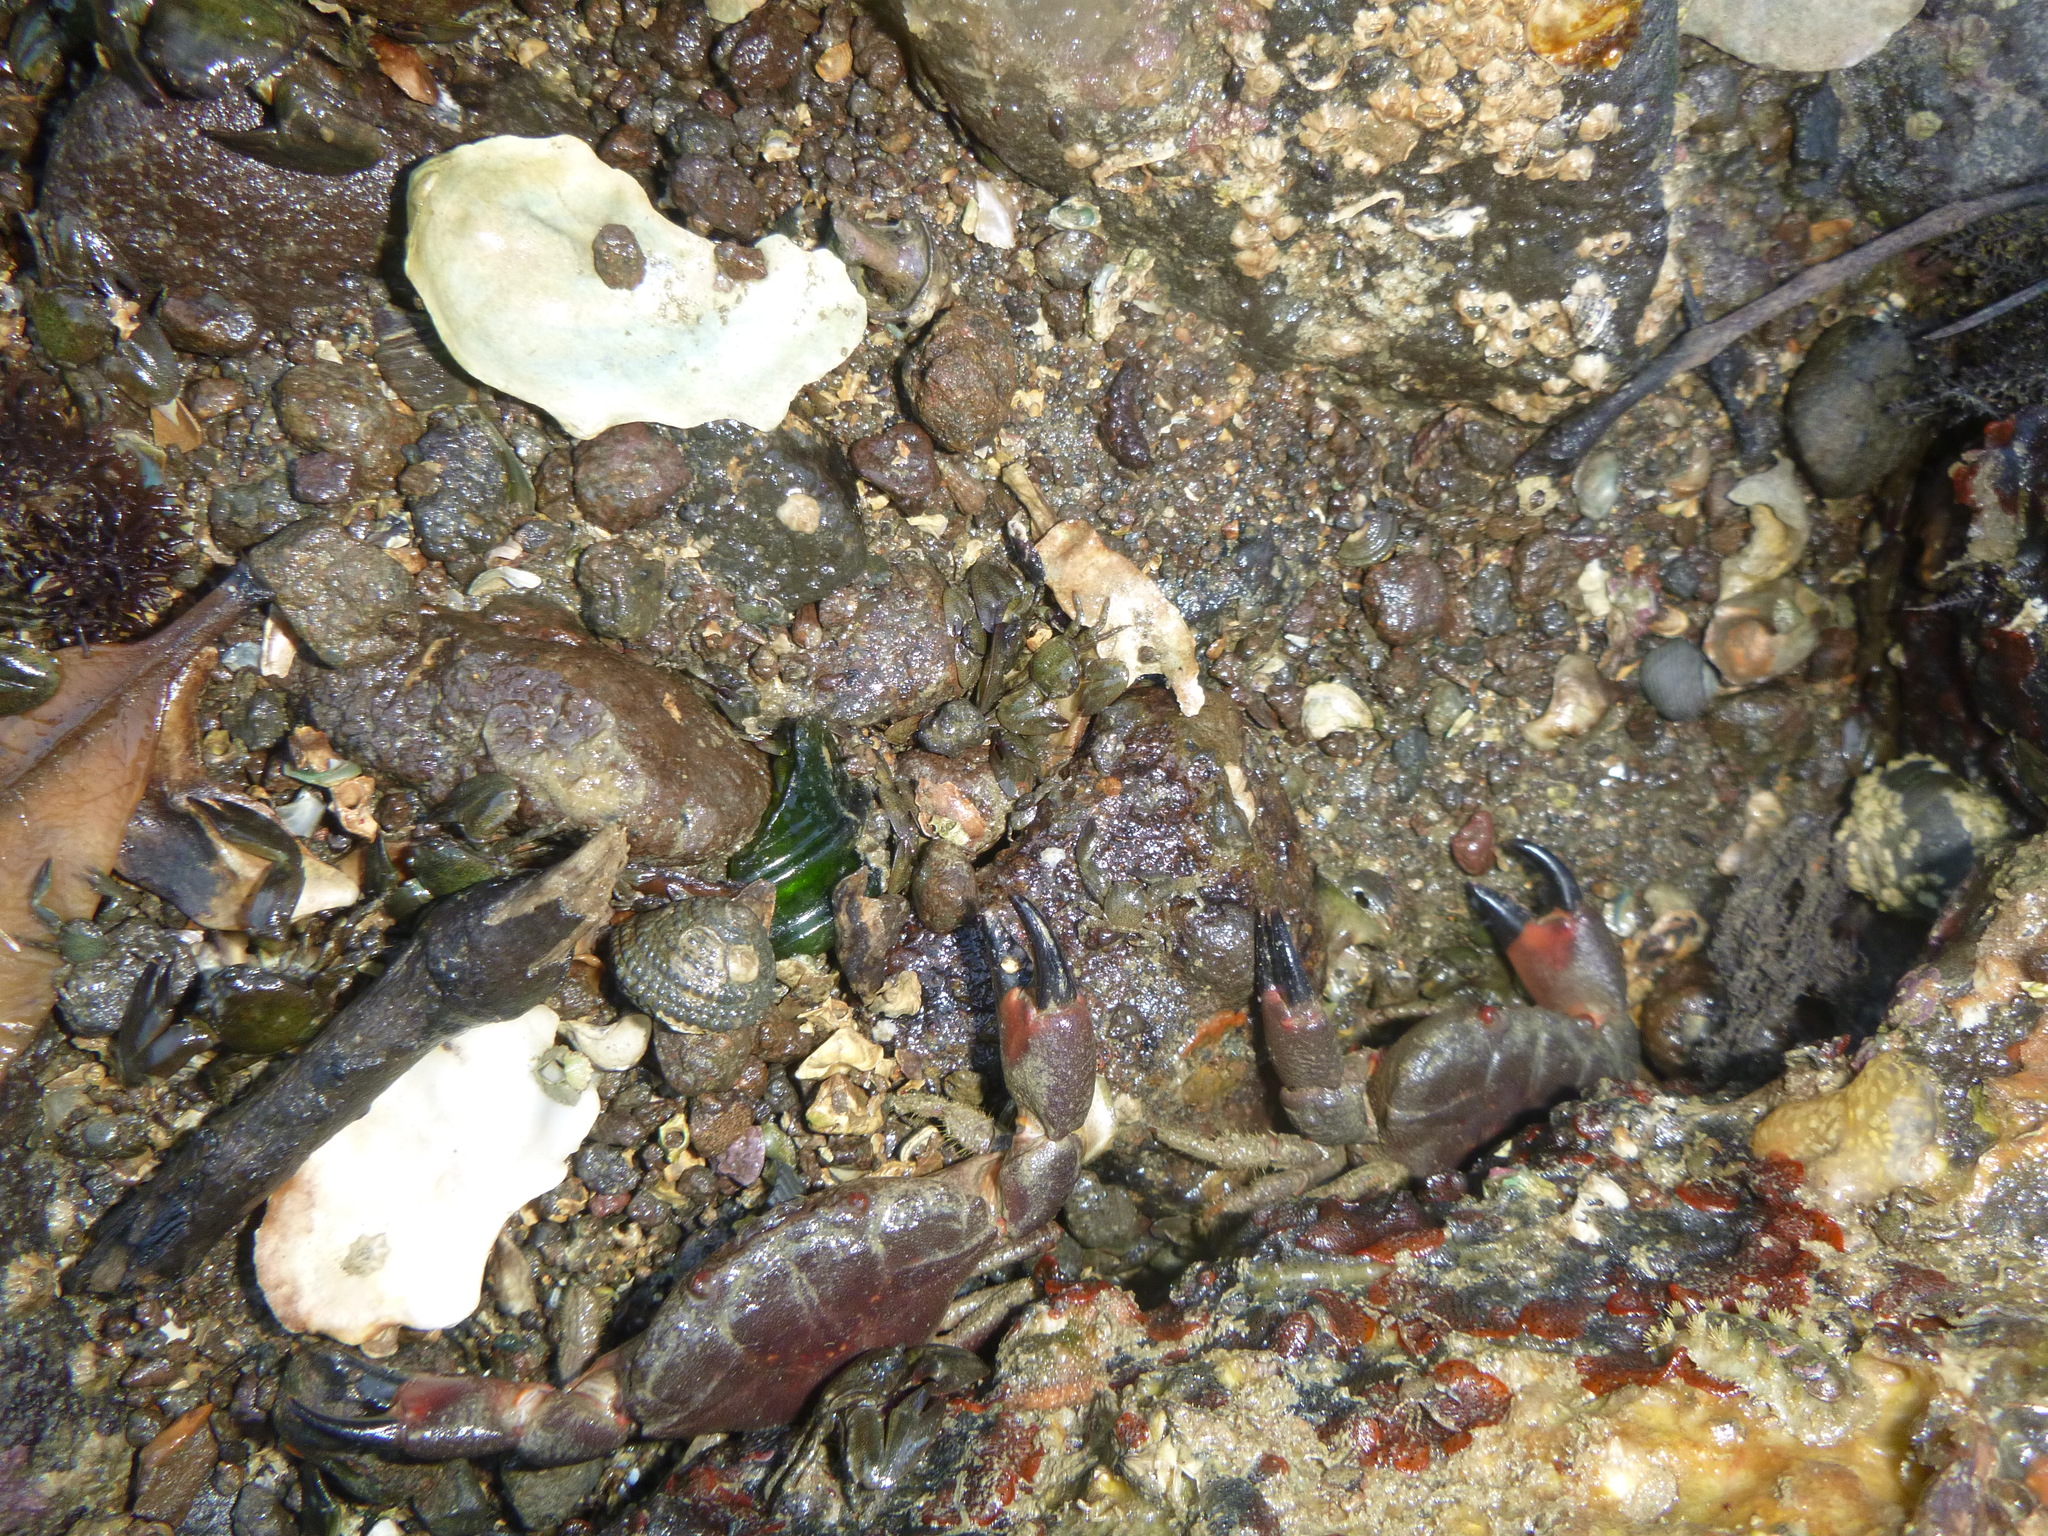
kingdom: Animalia
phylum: Mollusca
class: Gastropoda
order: Trochida
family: Trochidae
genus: Diloma
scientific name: Diloma bicanaliculatum
